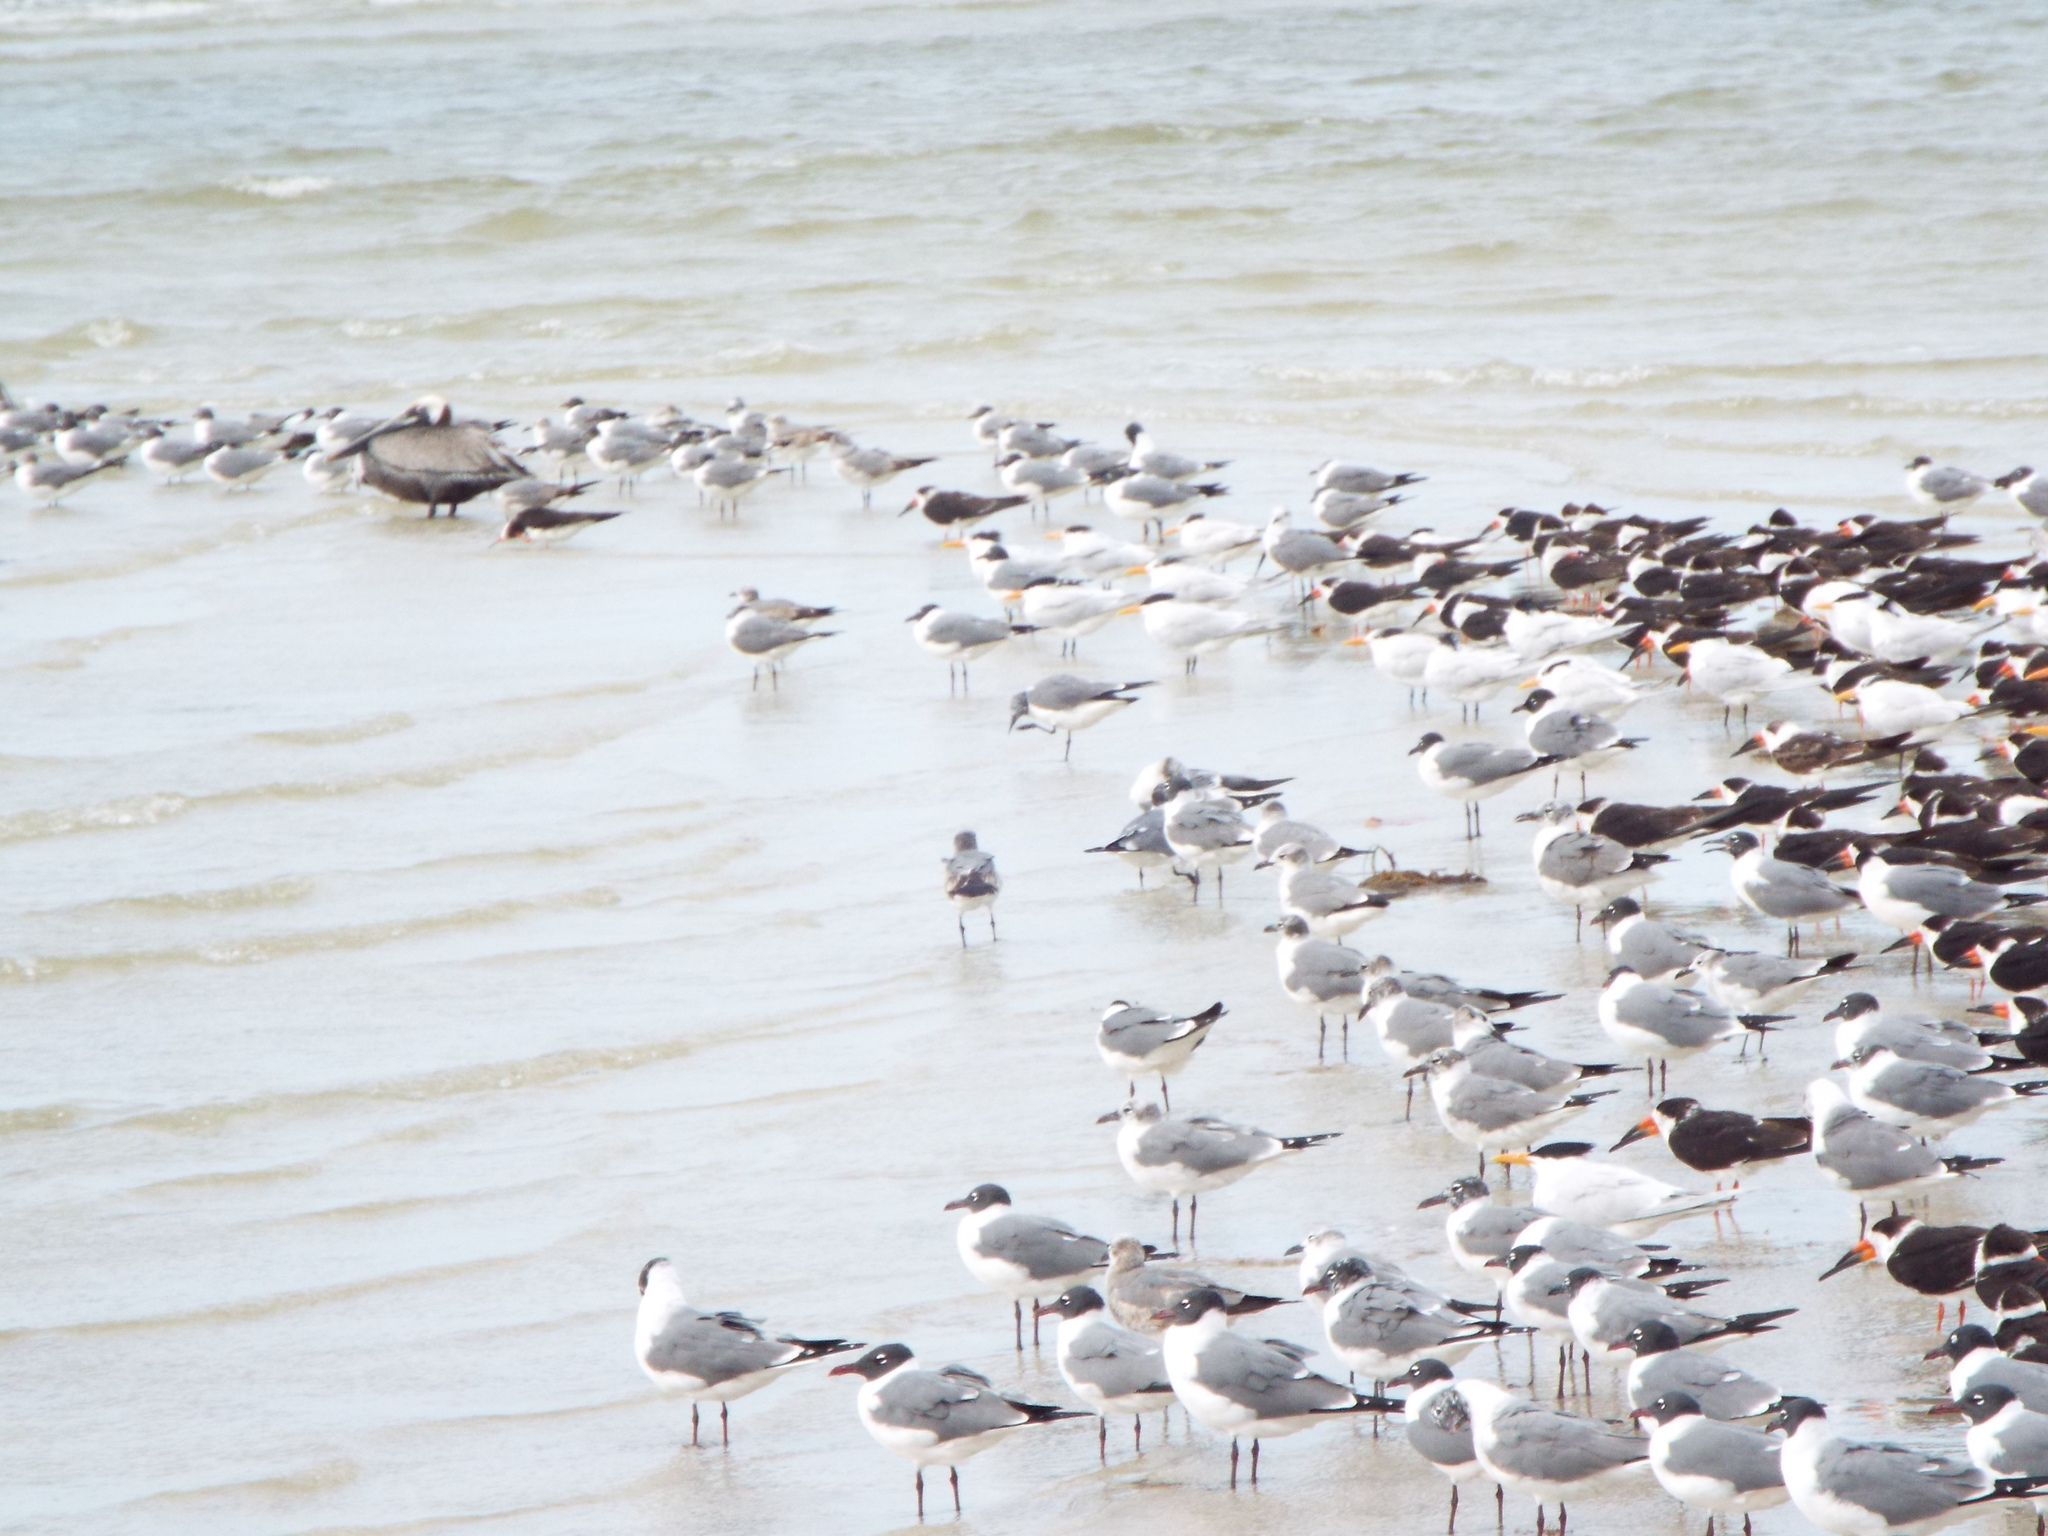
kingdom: Animalia
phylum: Chordata
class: Aves
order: Charadriiformes
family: Laridae
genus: Leucophaeus
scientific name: Leucophaeus atricilla
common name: Laughing gull
